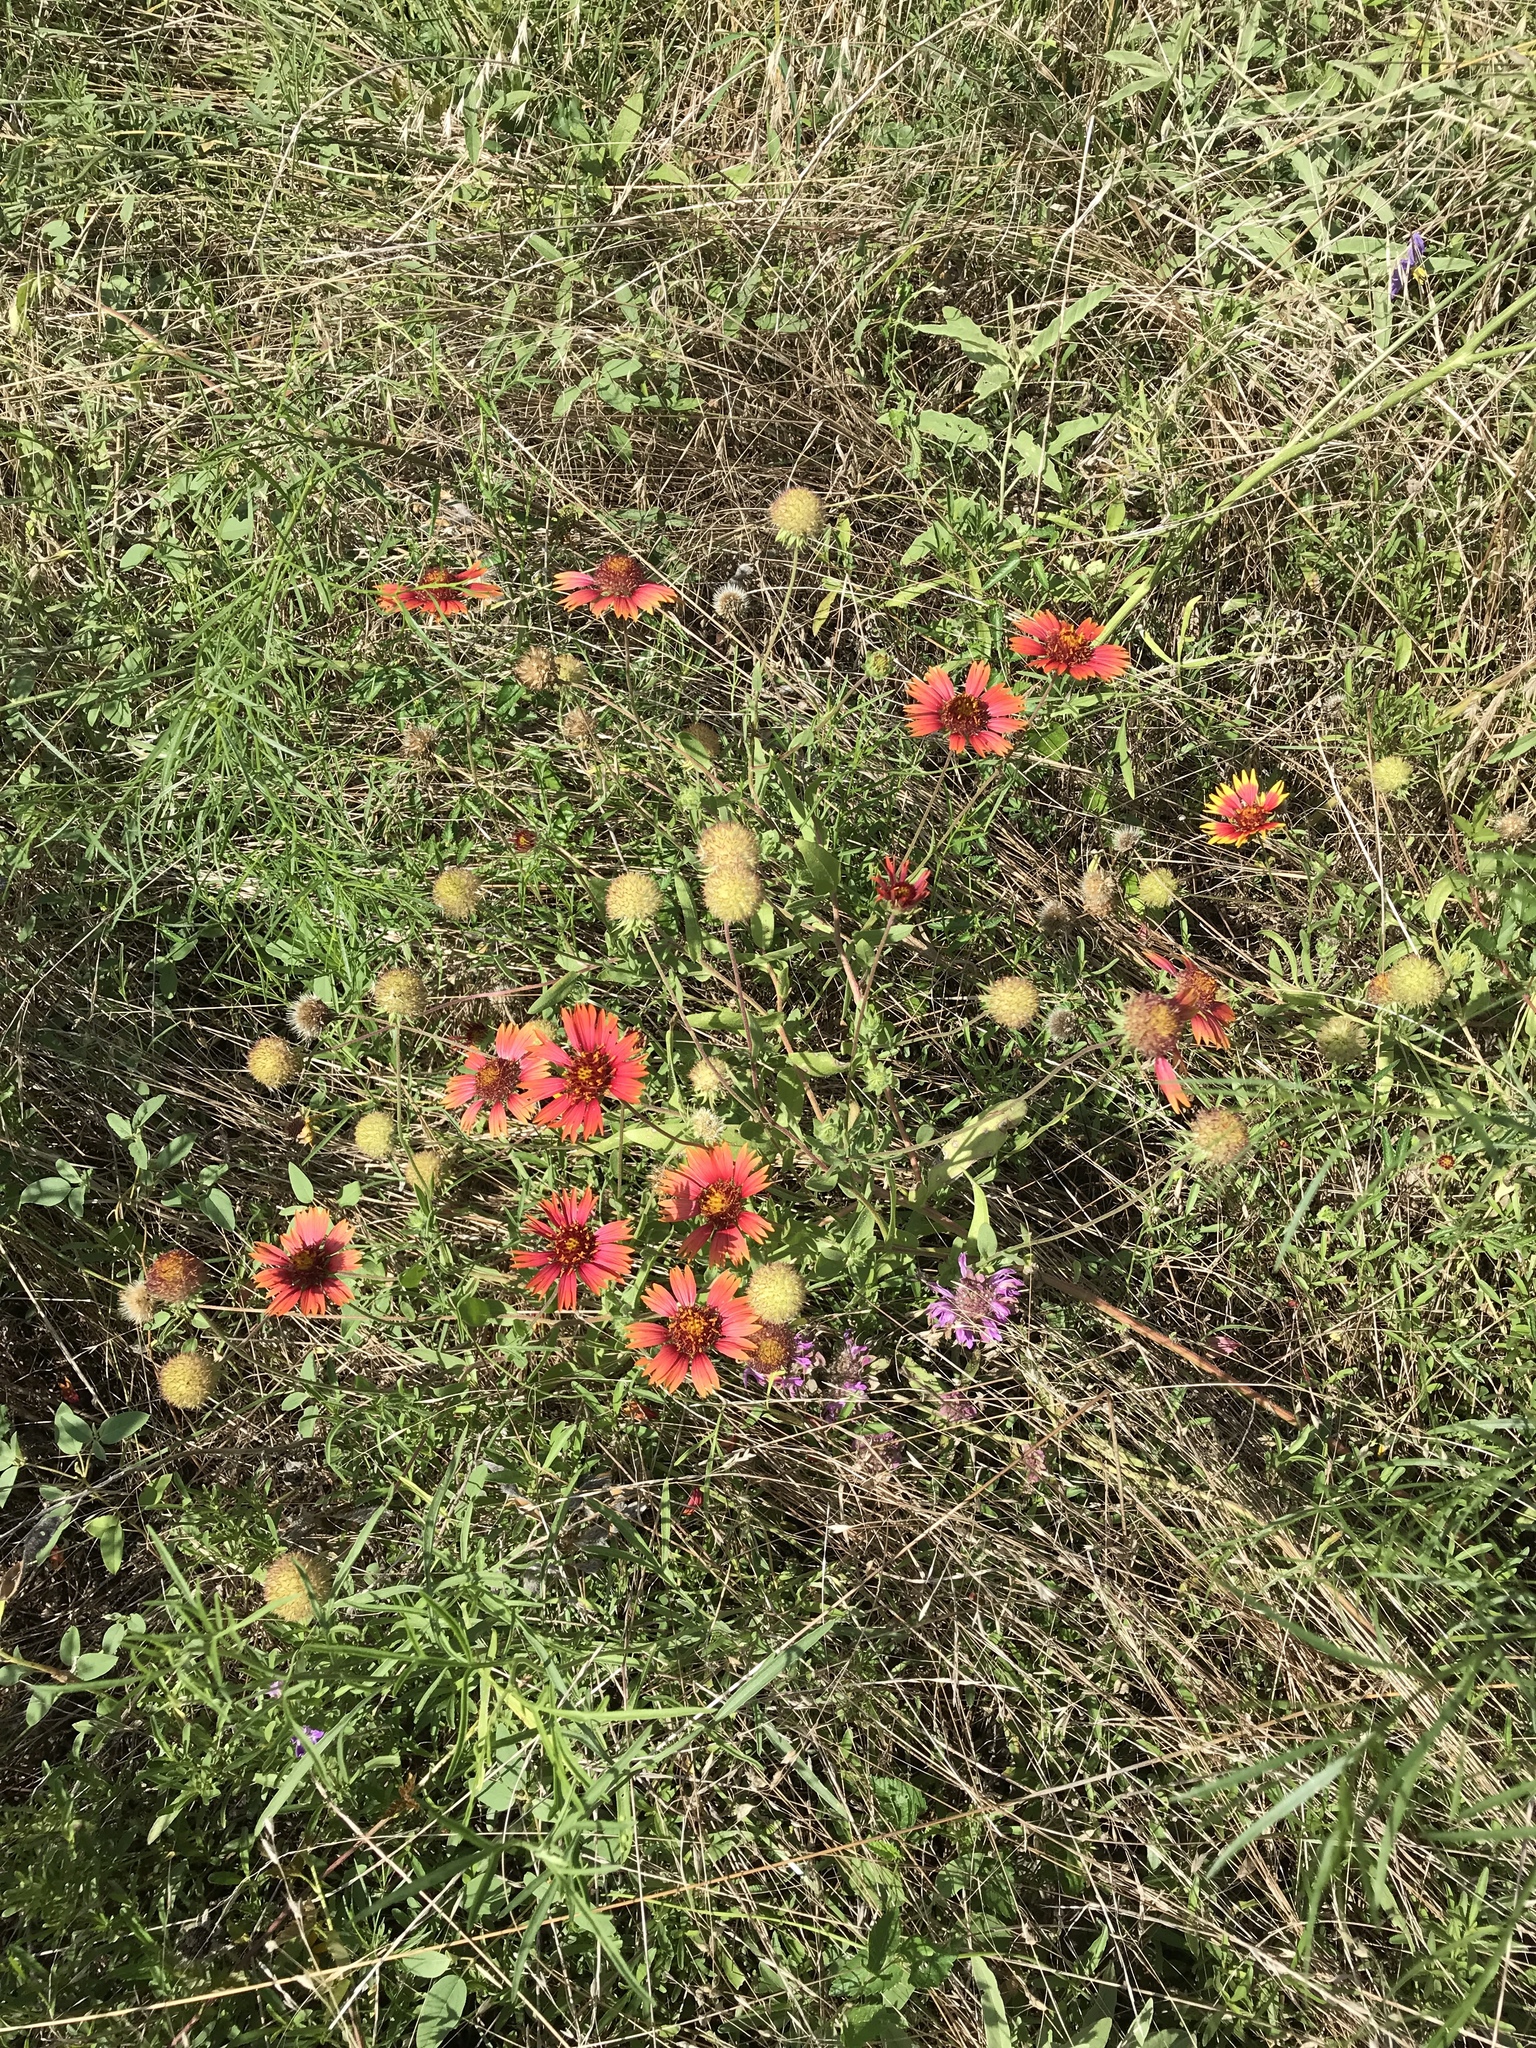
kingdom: Plantae
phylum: Tracheophyta
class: Magnoliopsida
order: Asterales
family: Asteraceae
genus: Gaillardia
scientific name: Gaillardia pulchella
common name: Firewheel
